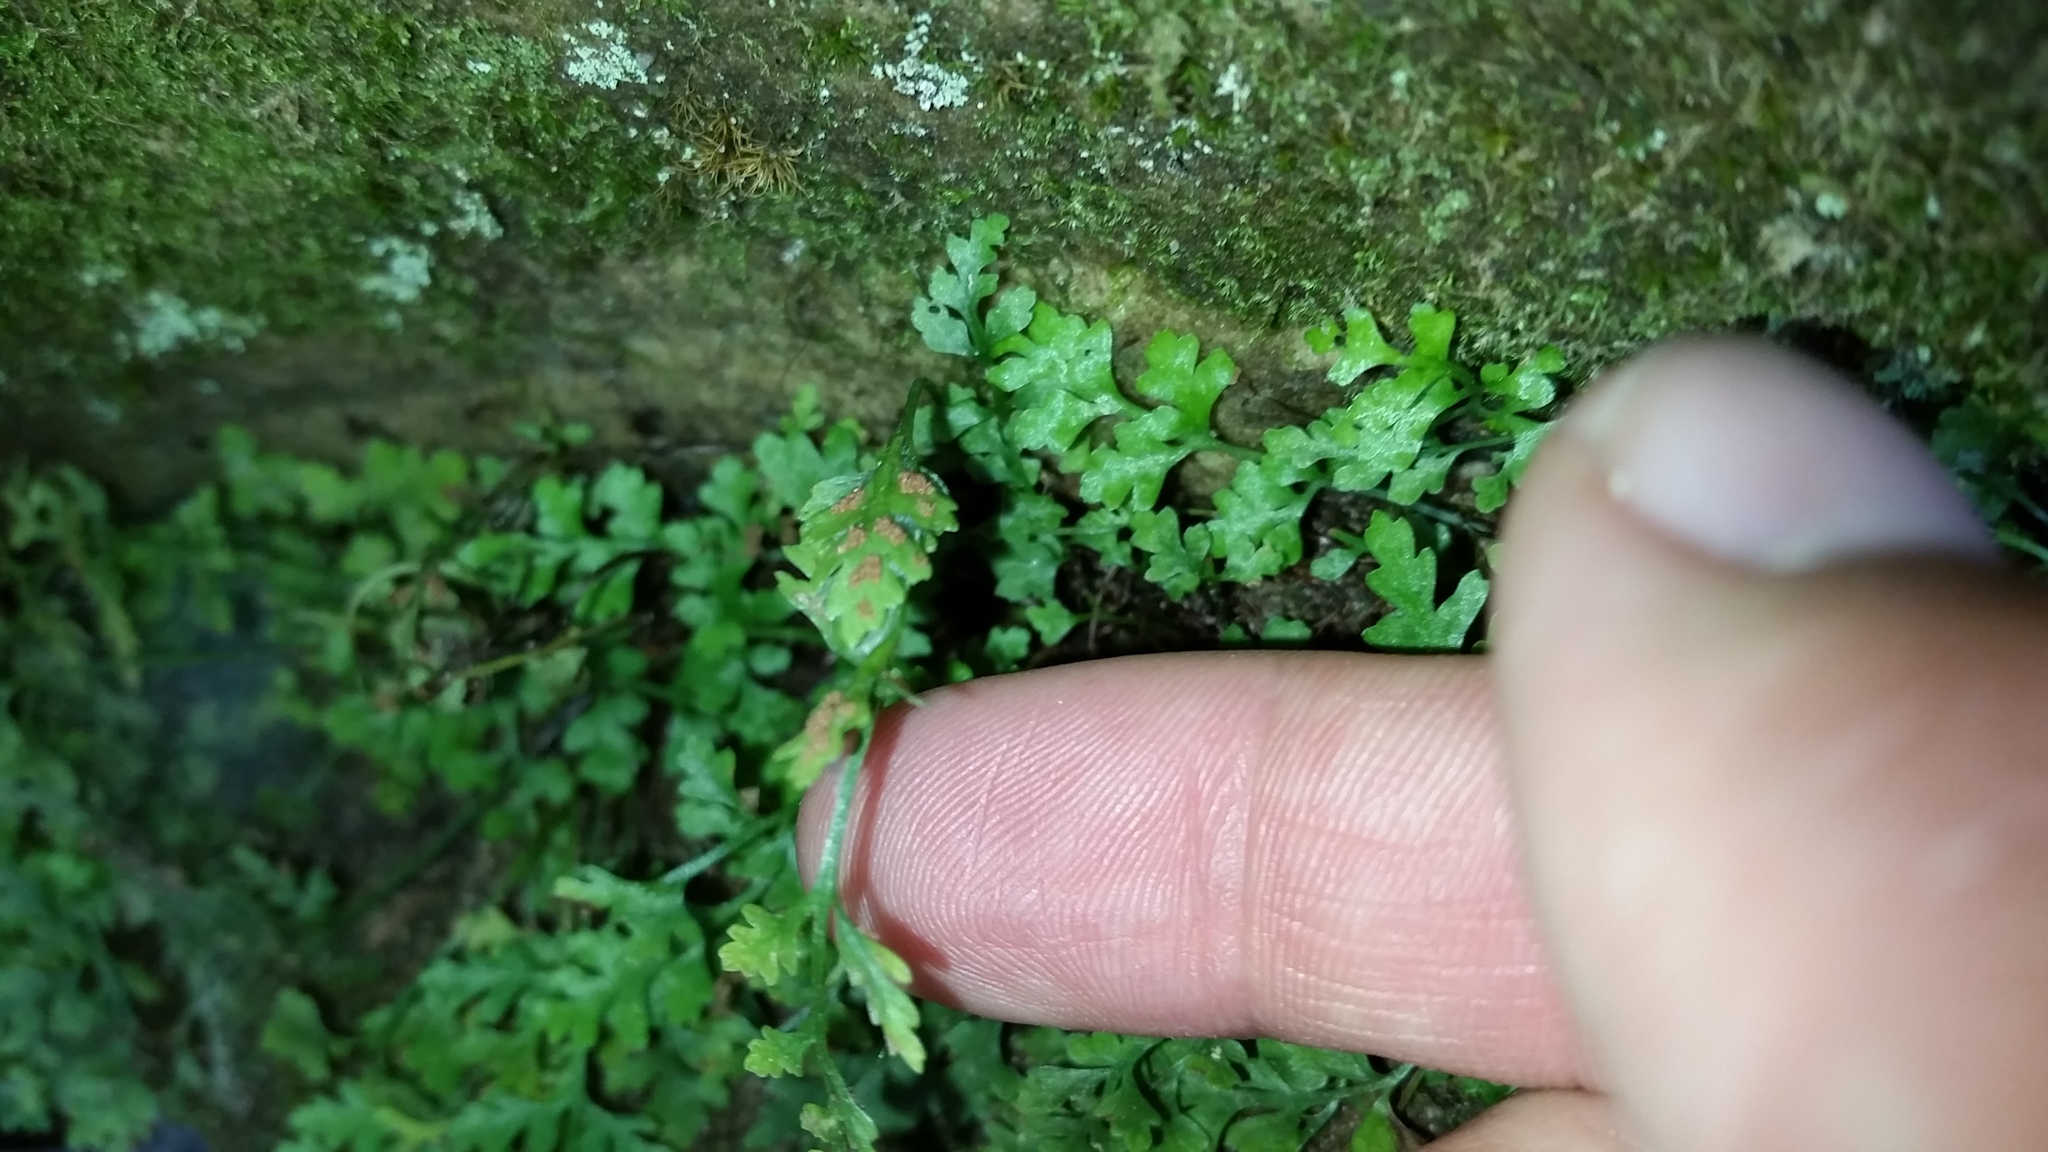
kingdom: Plantae
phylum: Tracheophyta
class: Polypodiopsida
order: Polypodiales
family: Aspleniaceae
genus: Asplenium
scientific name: Asplenium montanum
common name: Mountain spleenwort
